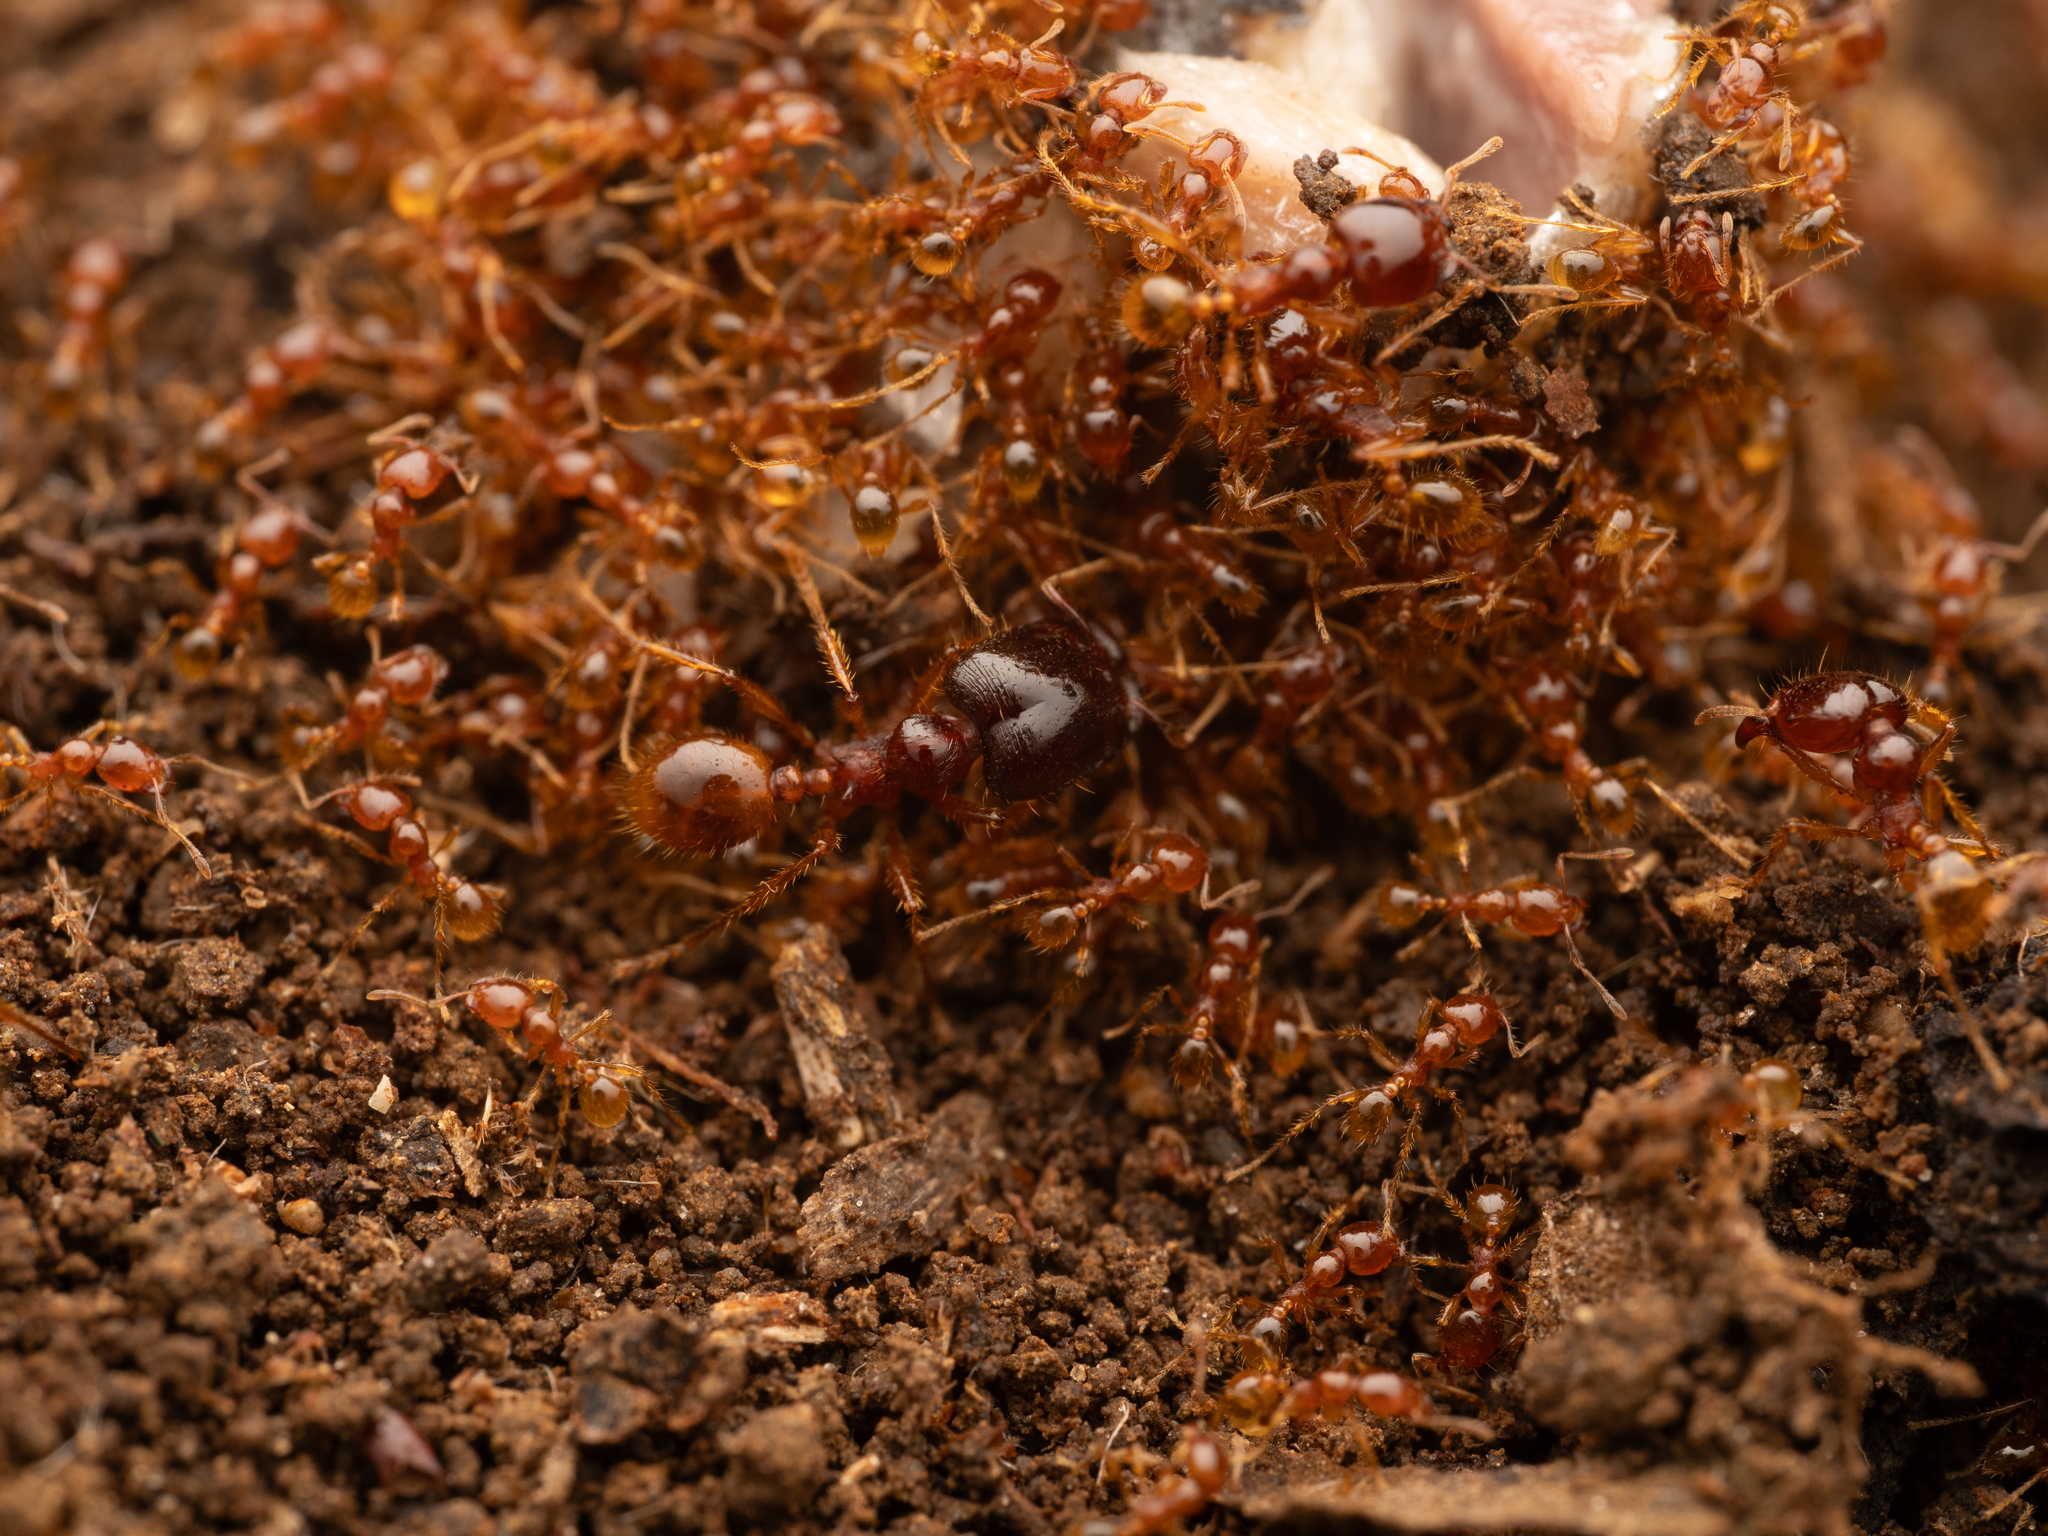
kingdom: Animalia
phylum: Arthropoda
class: Insecta
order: Hymenoptera
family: Formicidae
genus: Carebara
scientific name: Carebara affinis
